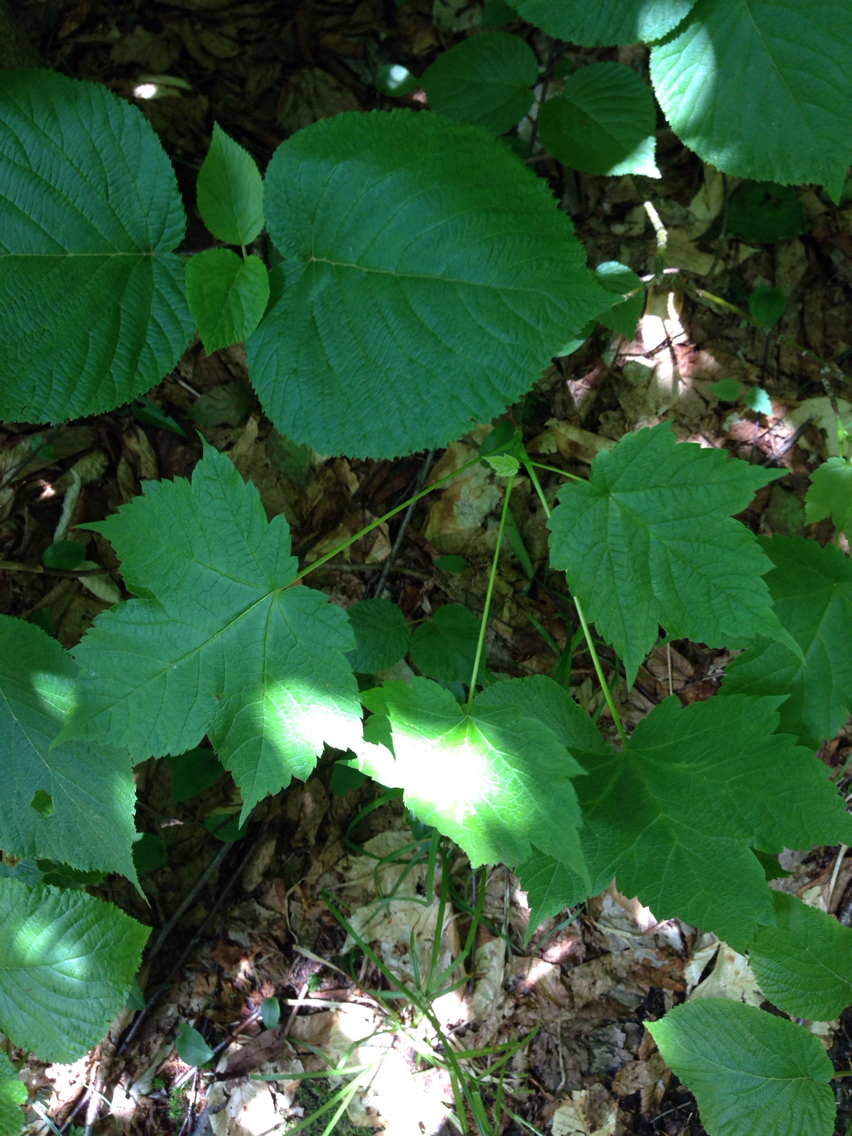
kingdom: Plantae
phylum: Tracheophyta
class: Magnoliopsida
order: Sapindales
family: Sapindaceae
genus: Acer
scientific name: Acer spicatum
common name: Mountain maple
